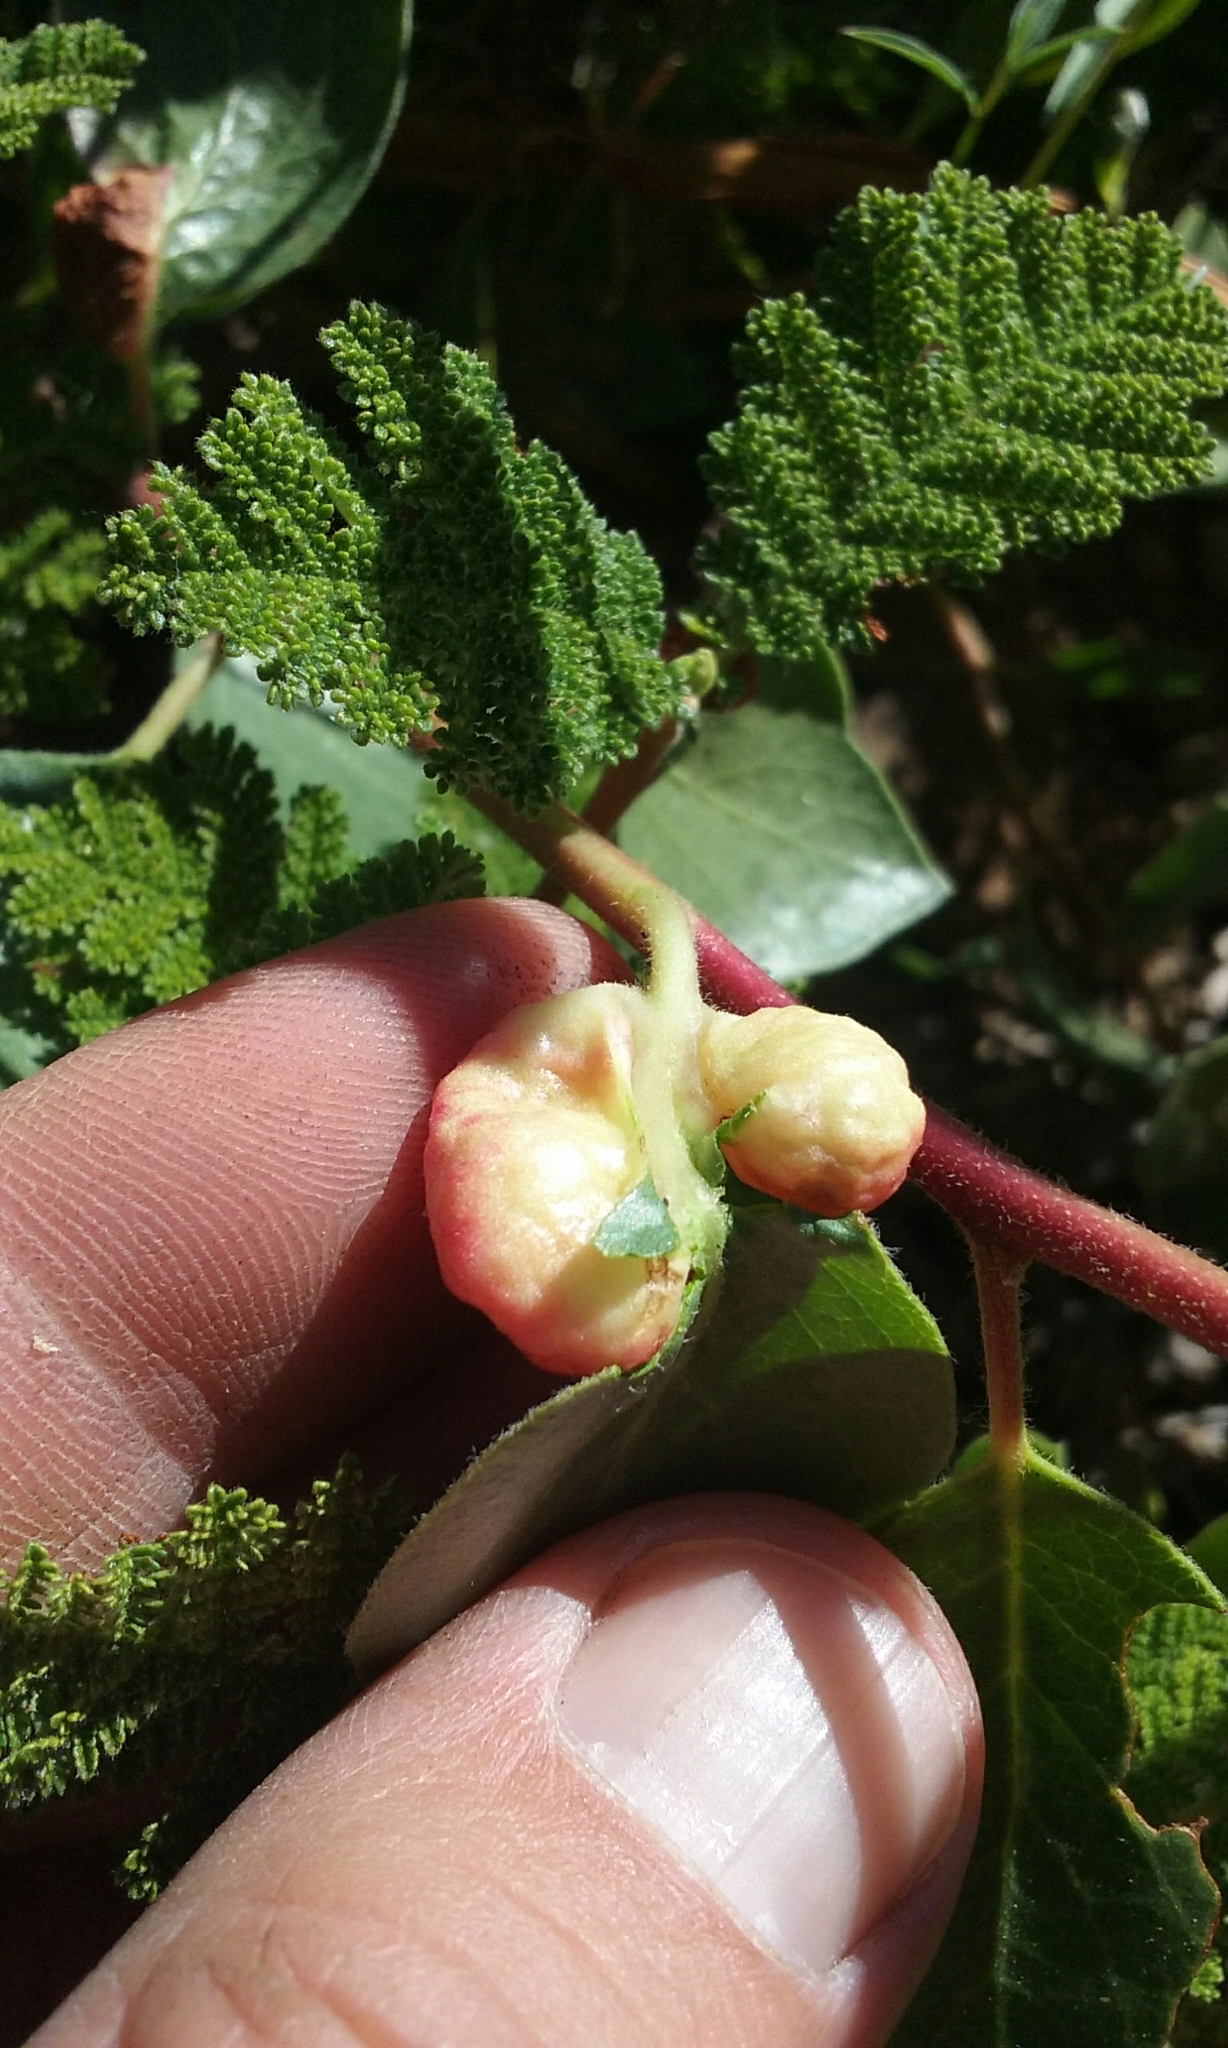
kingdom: Animalia
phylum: Arthropoda
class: Insecta
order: Hemiptera
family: Aphididae
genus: Tamalia
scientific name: Tamalia coweni
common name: Manzanita leafgall aphid
